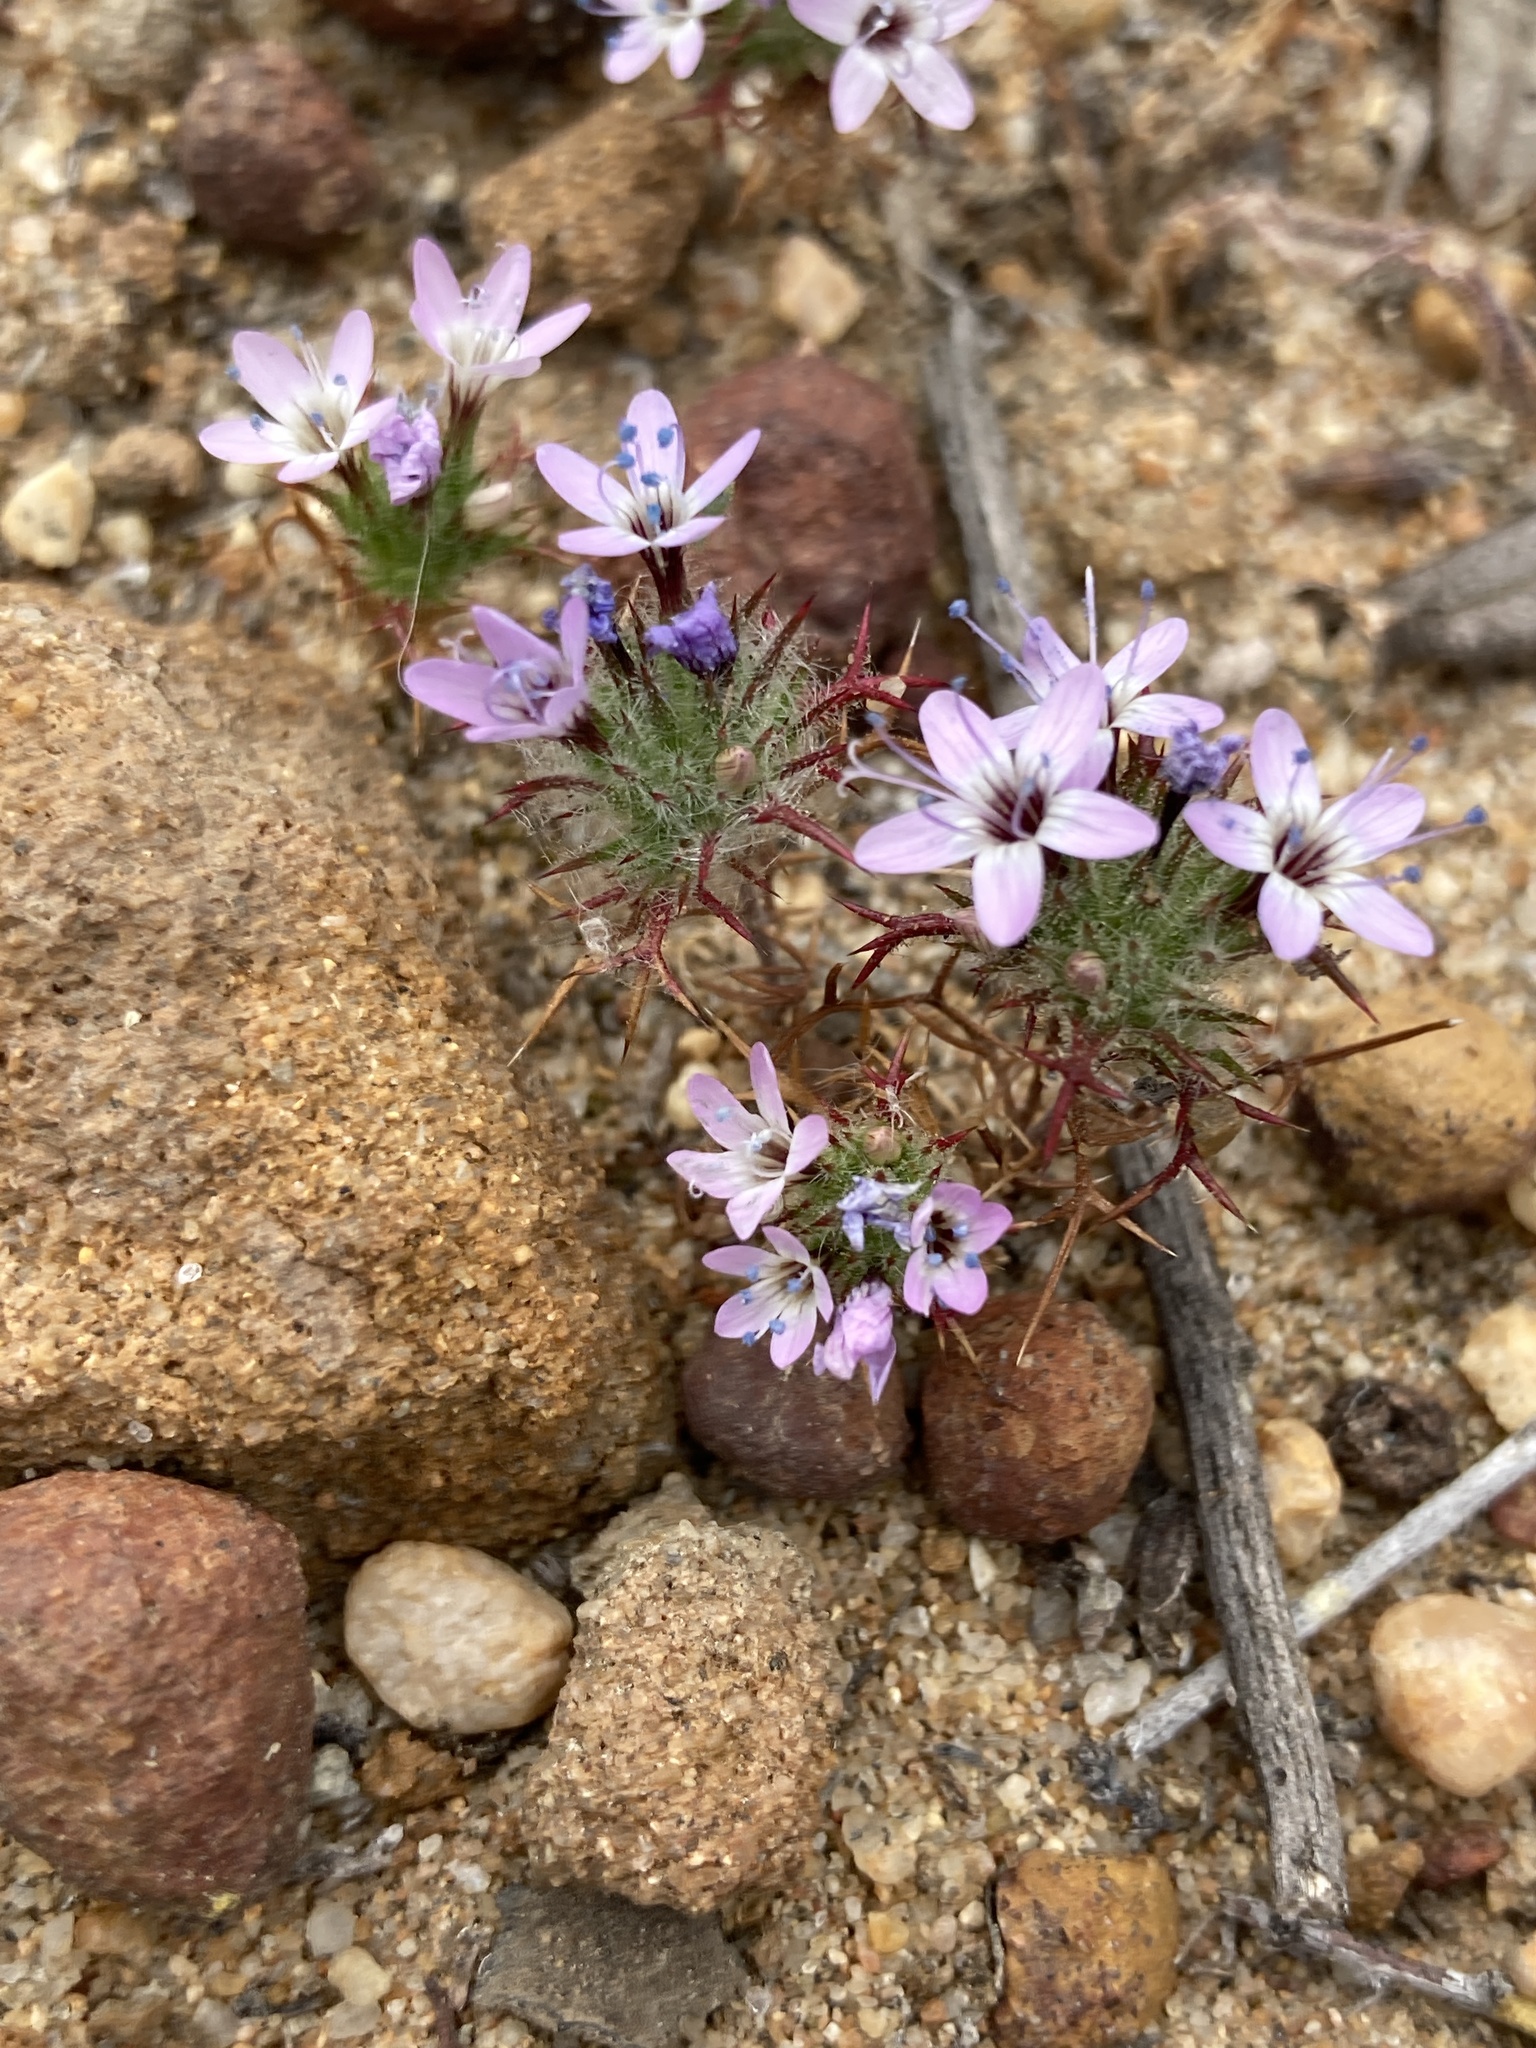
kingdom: Plantae
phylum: Tracheophyta
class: Magnoliopsida
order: Ericales
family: Polemoniaceae
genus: Navarretia
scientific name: Navarretia hamata
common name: Hooked navarretia
